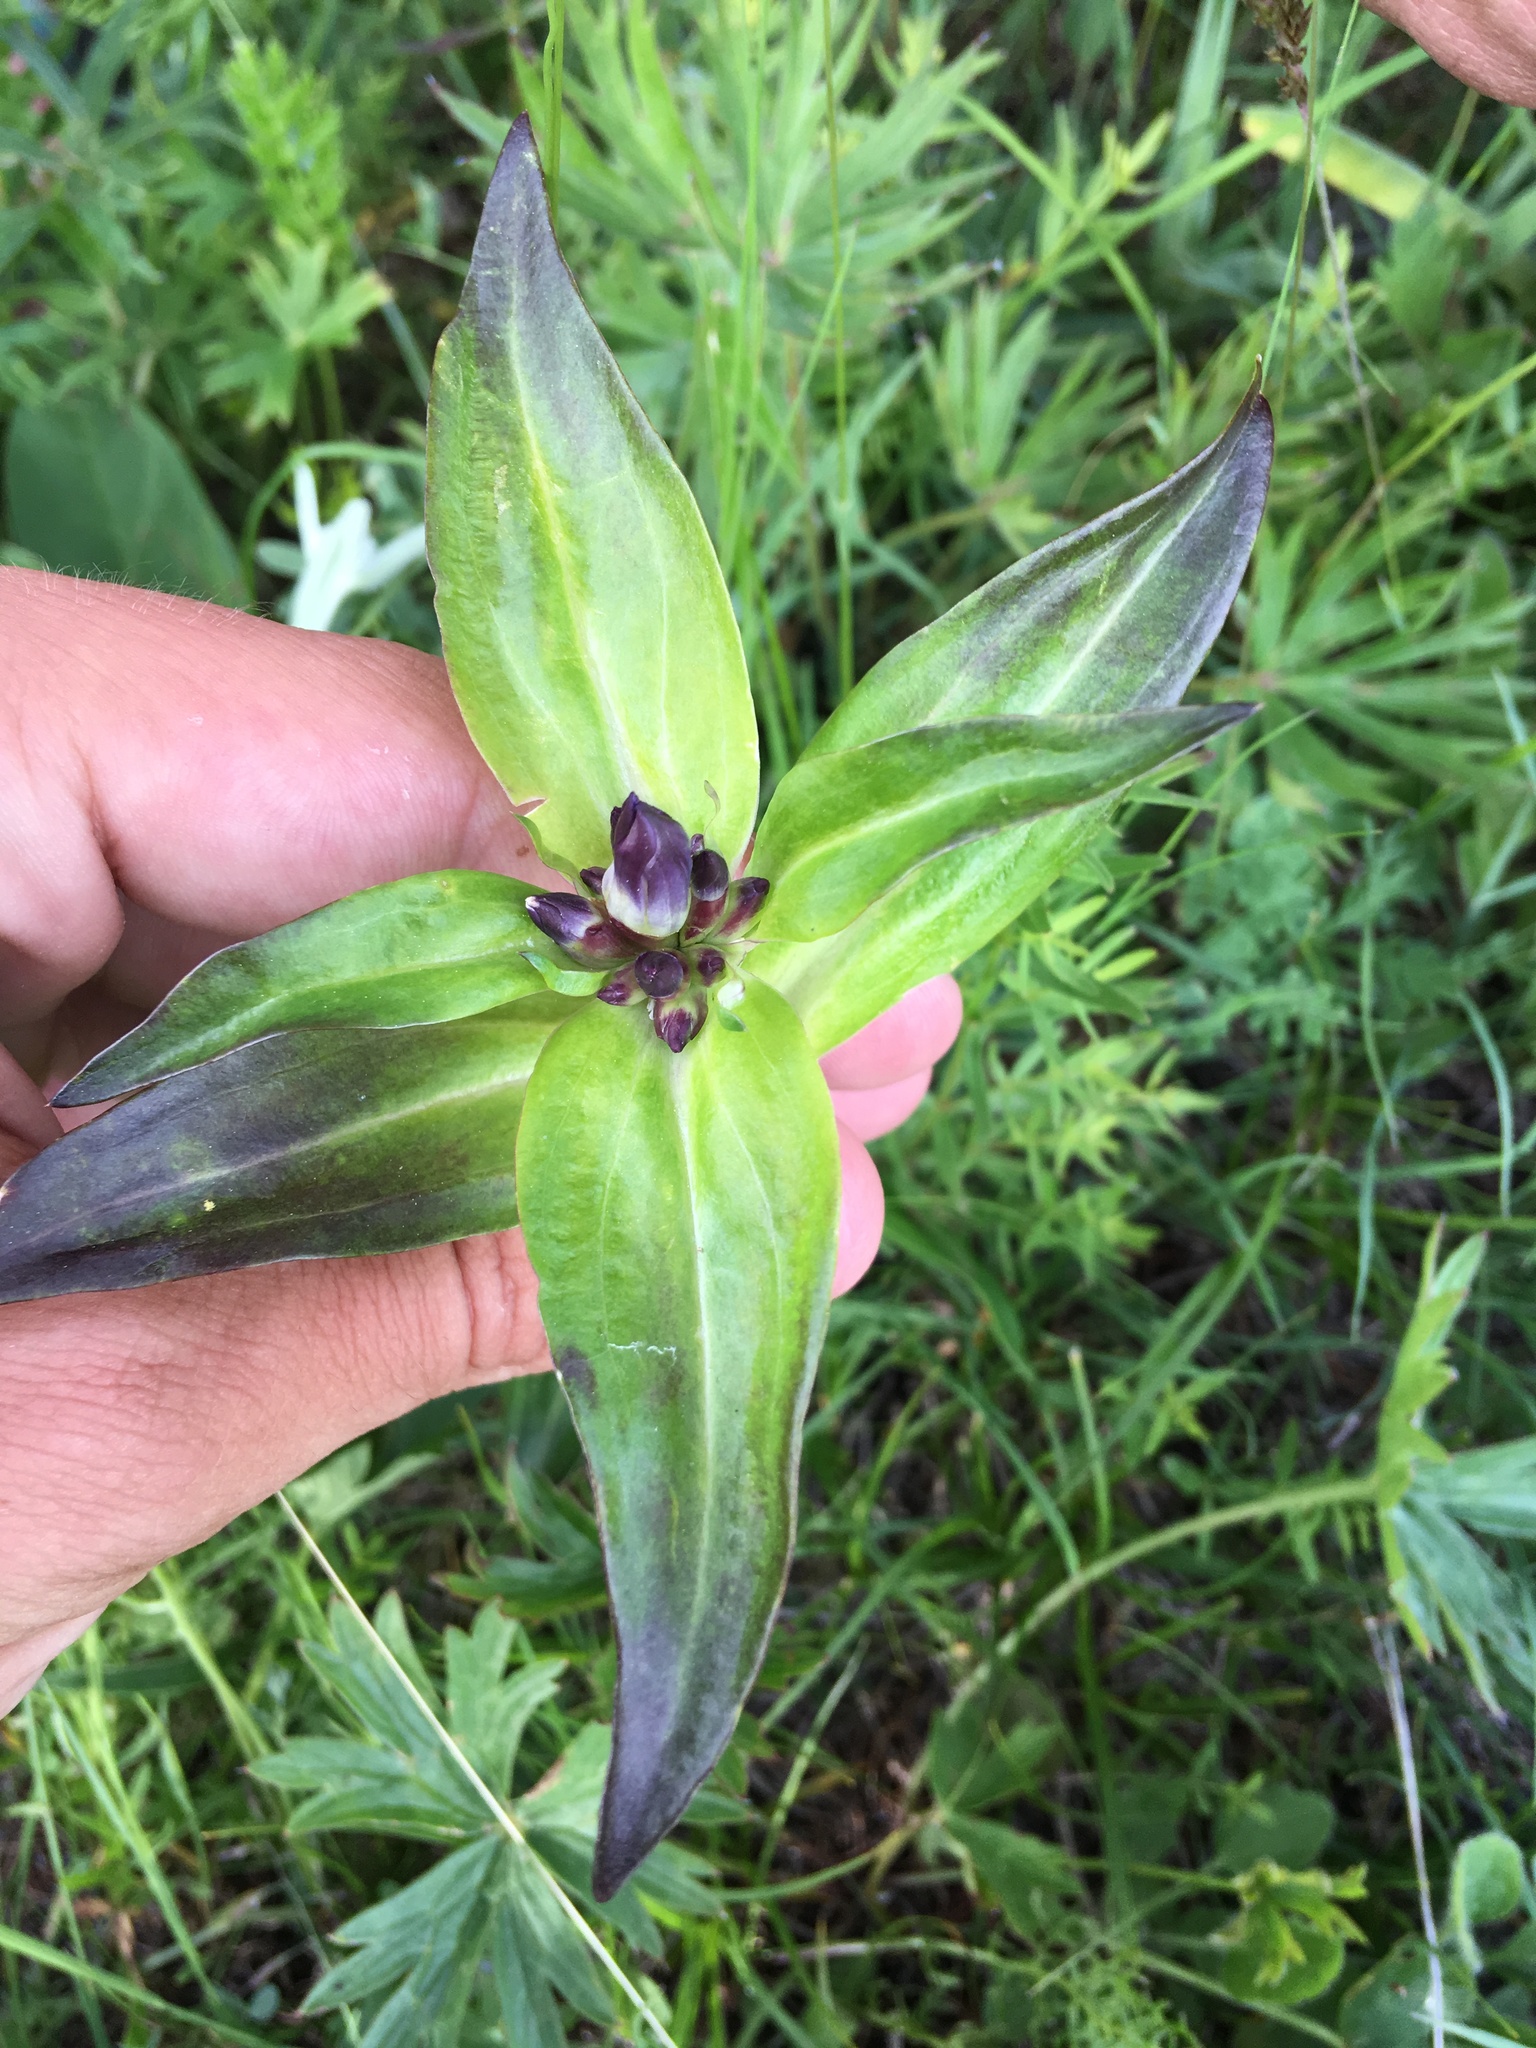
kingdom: Plantae
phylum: Tracheophyta
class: Magnoliopsida
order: Gentianales
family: Gentianaceae
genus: Gentiana
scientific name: Gentiana macrophylla
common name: Large-leaf gentian
